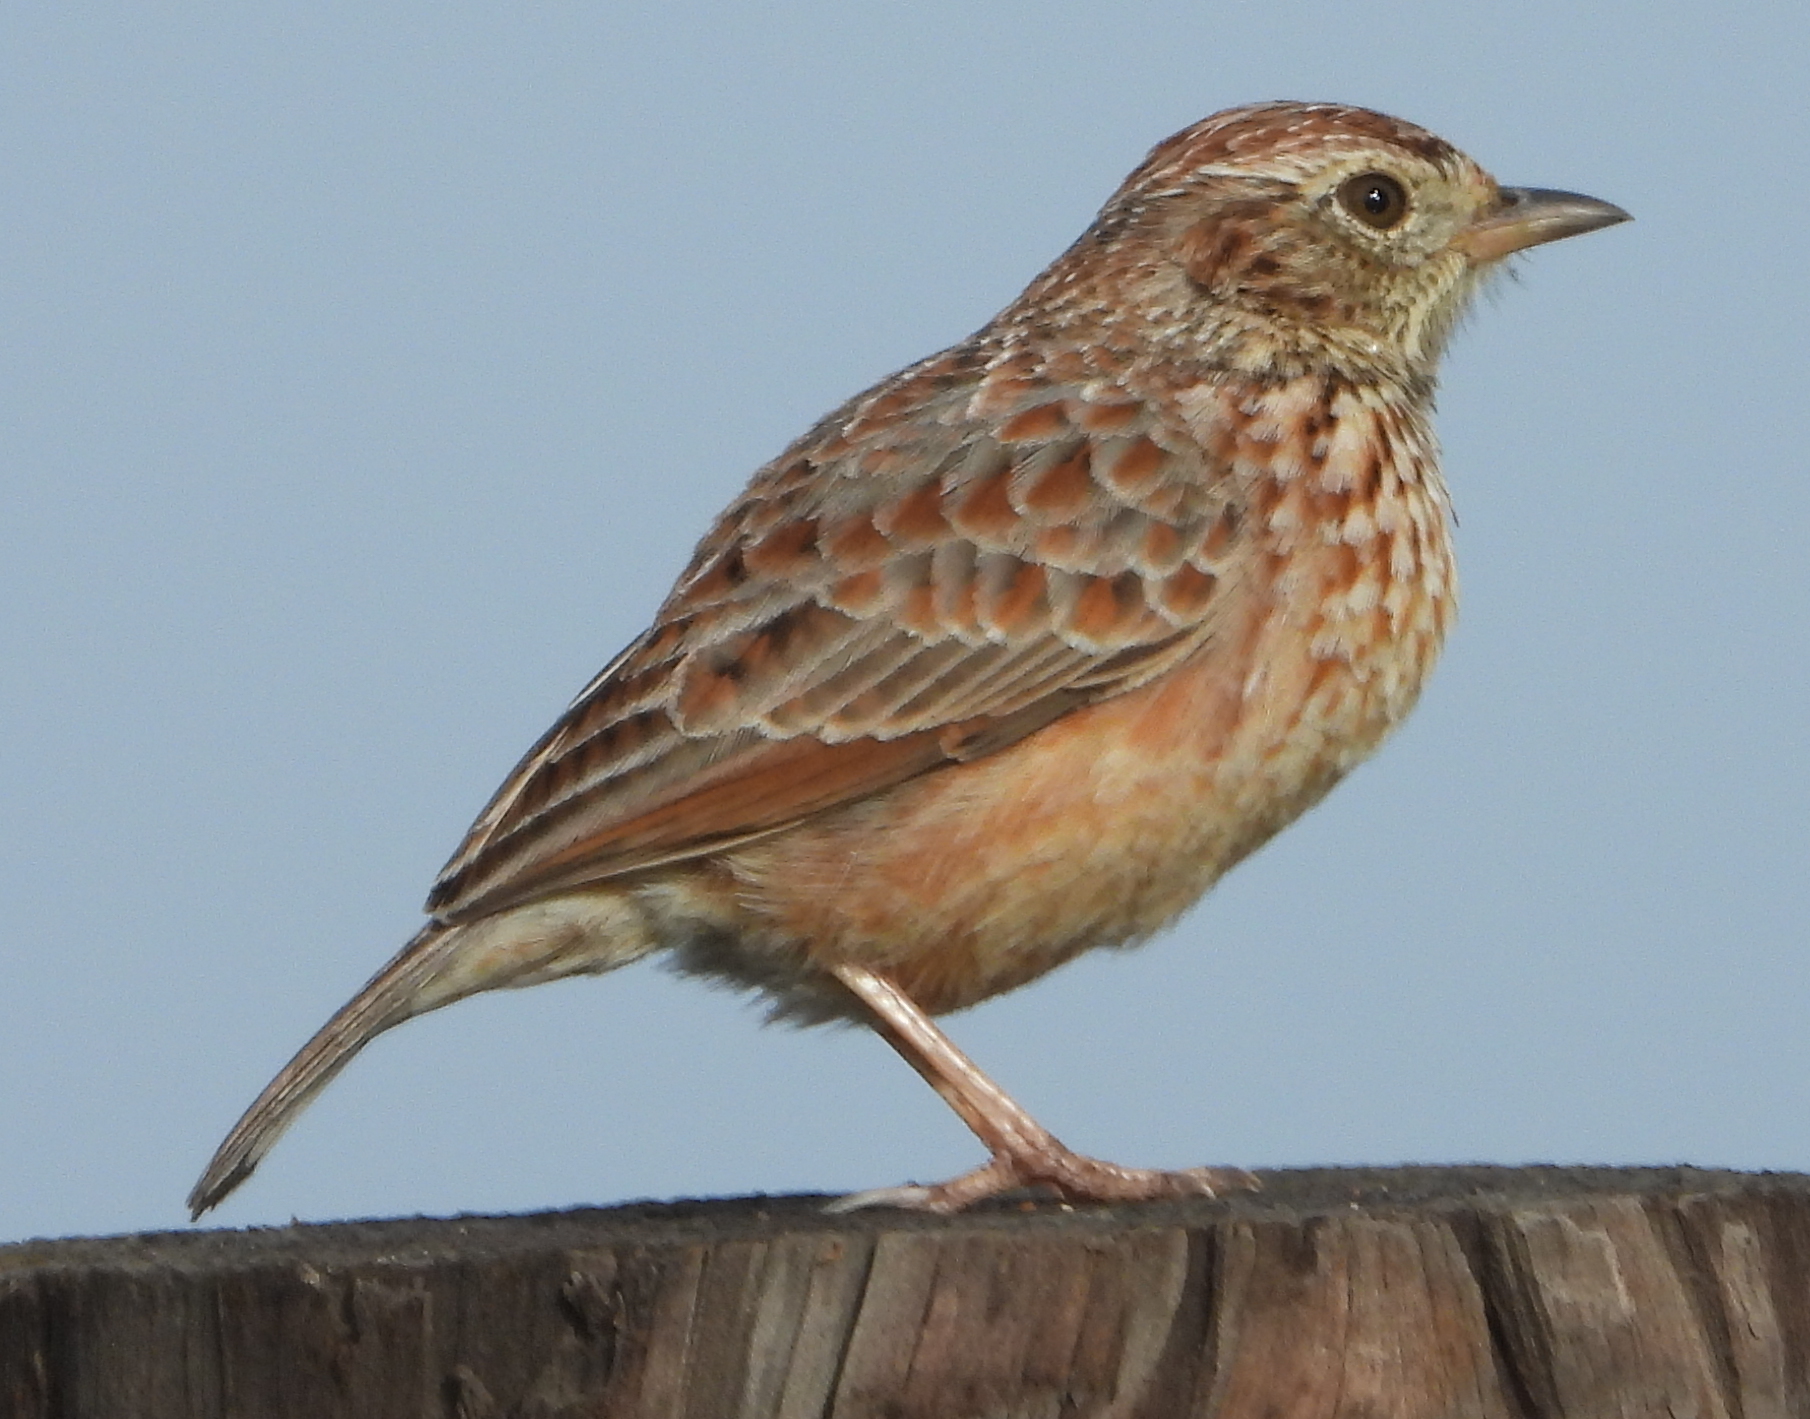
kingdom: Animalia
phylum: Chordata
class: Aves
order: Passeriformes
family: Alaudidae
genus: Mirafra
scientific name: Mirafra apiata
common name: Cape clapper lark
